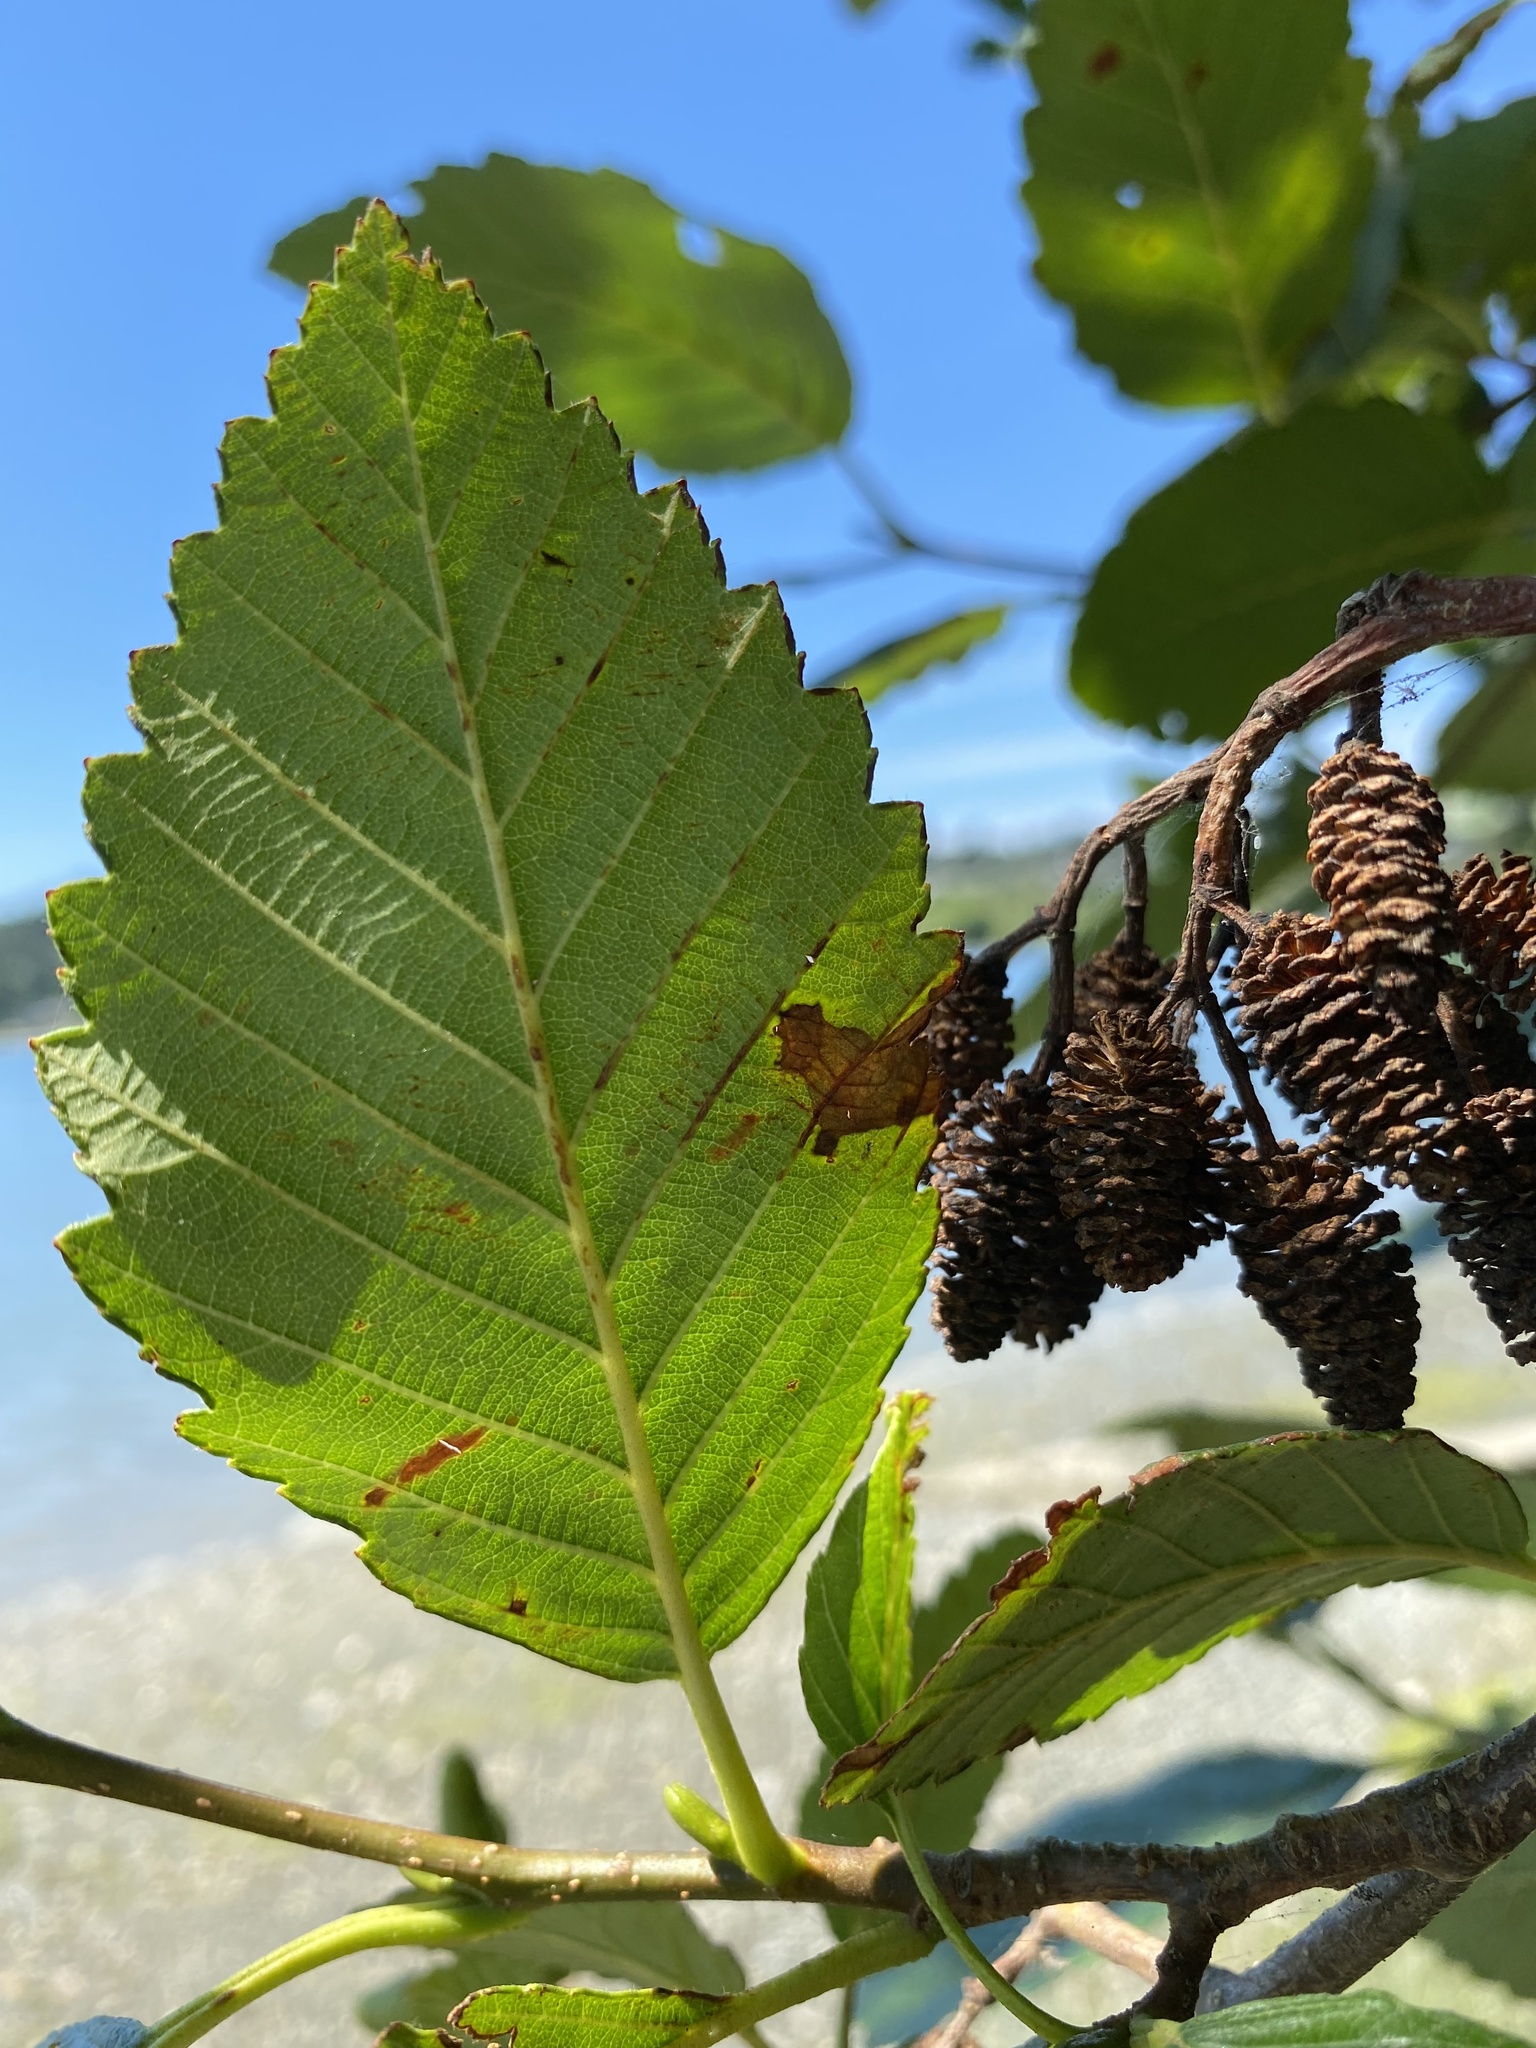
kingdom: Plantae
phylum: Tracheophyta
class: Magnoliopsida
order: Fagales
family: Betulaceae
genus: Alnus
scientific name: Alnus rubra
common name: Red alder
